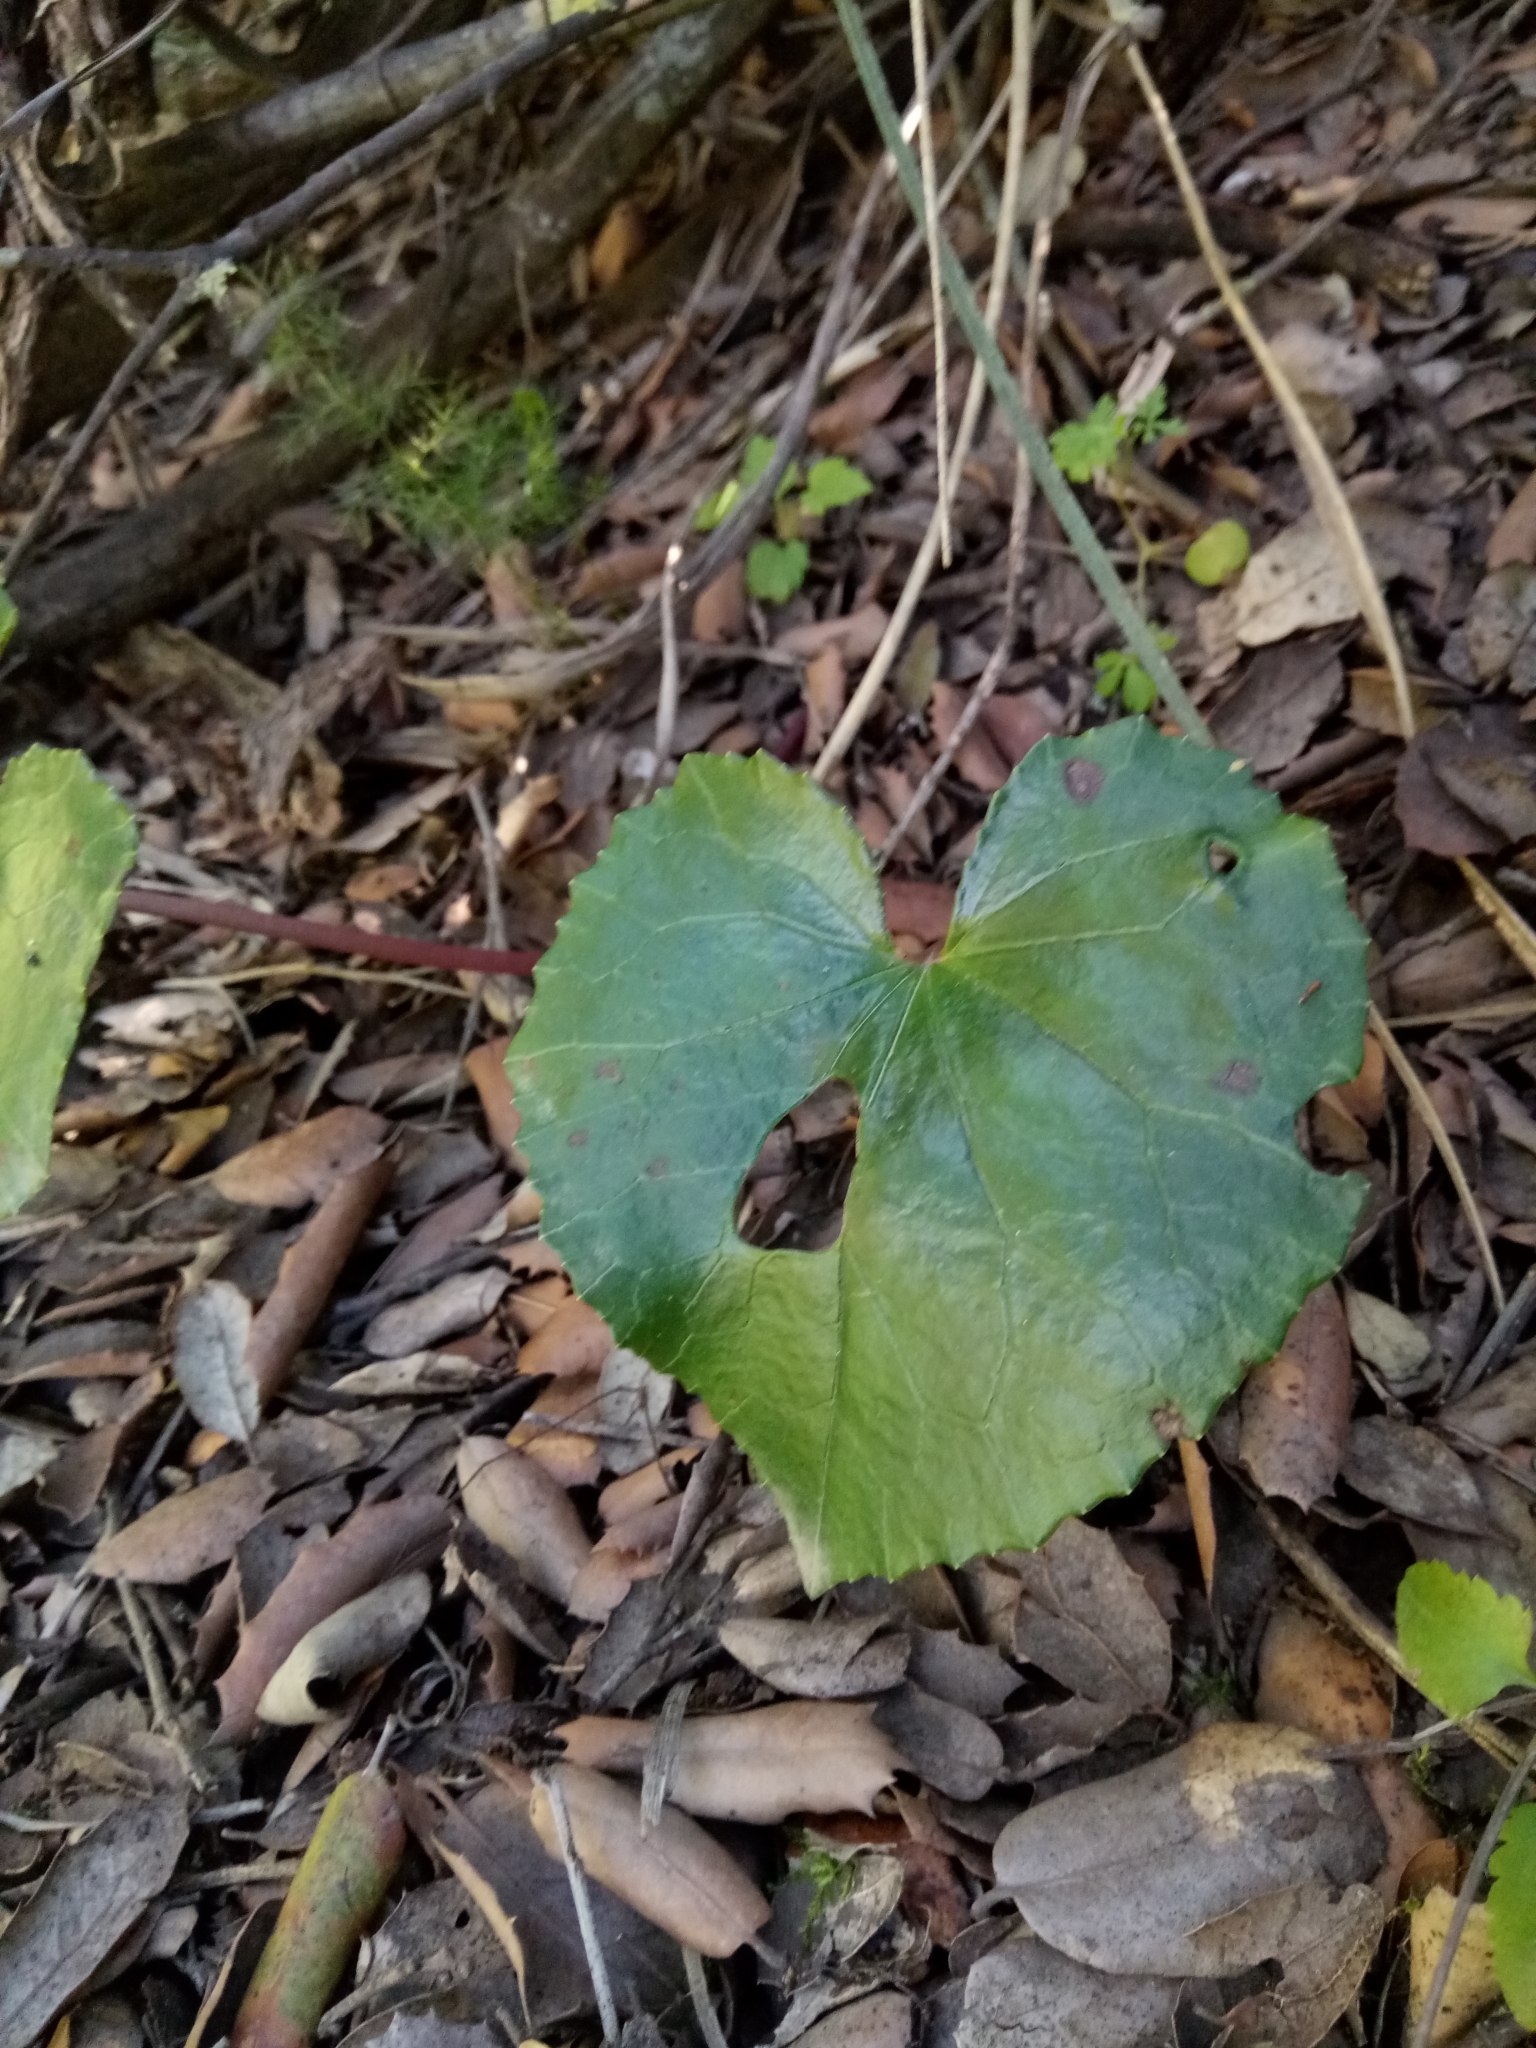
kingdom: Plantae
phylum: Tracheophyta
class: Magnoliopsida
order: Ericales
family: Primulaceae
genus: Cyclamen
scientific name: Cyclamen africanum
